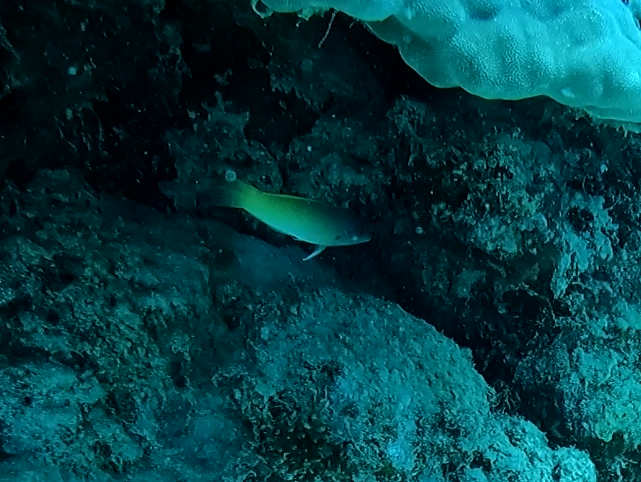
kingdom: Animalia
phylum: Chordata
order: Perciformes
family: Labridae
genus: Halichoeres
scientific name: Halichoeres prosopeion
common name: Half-grey wrasse
